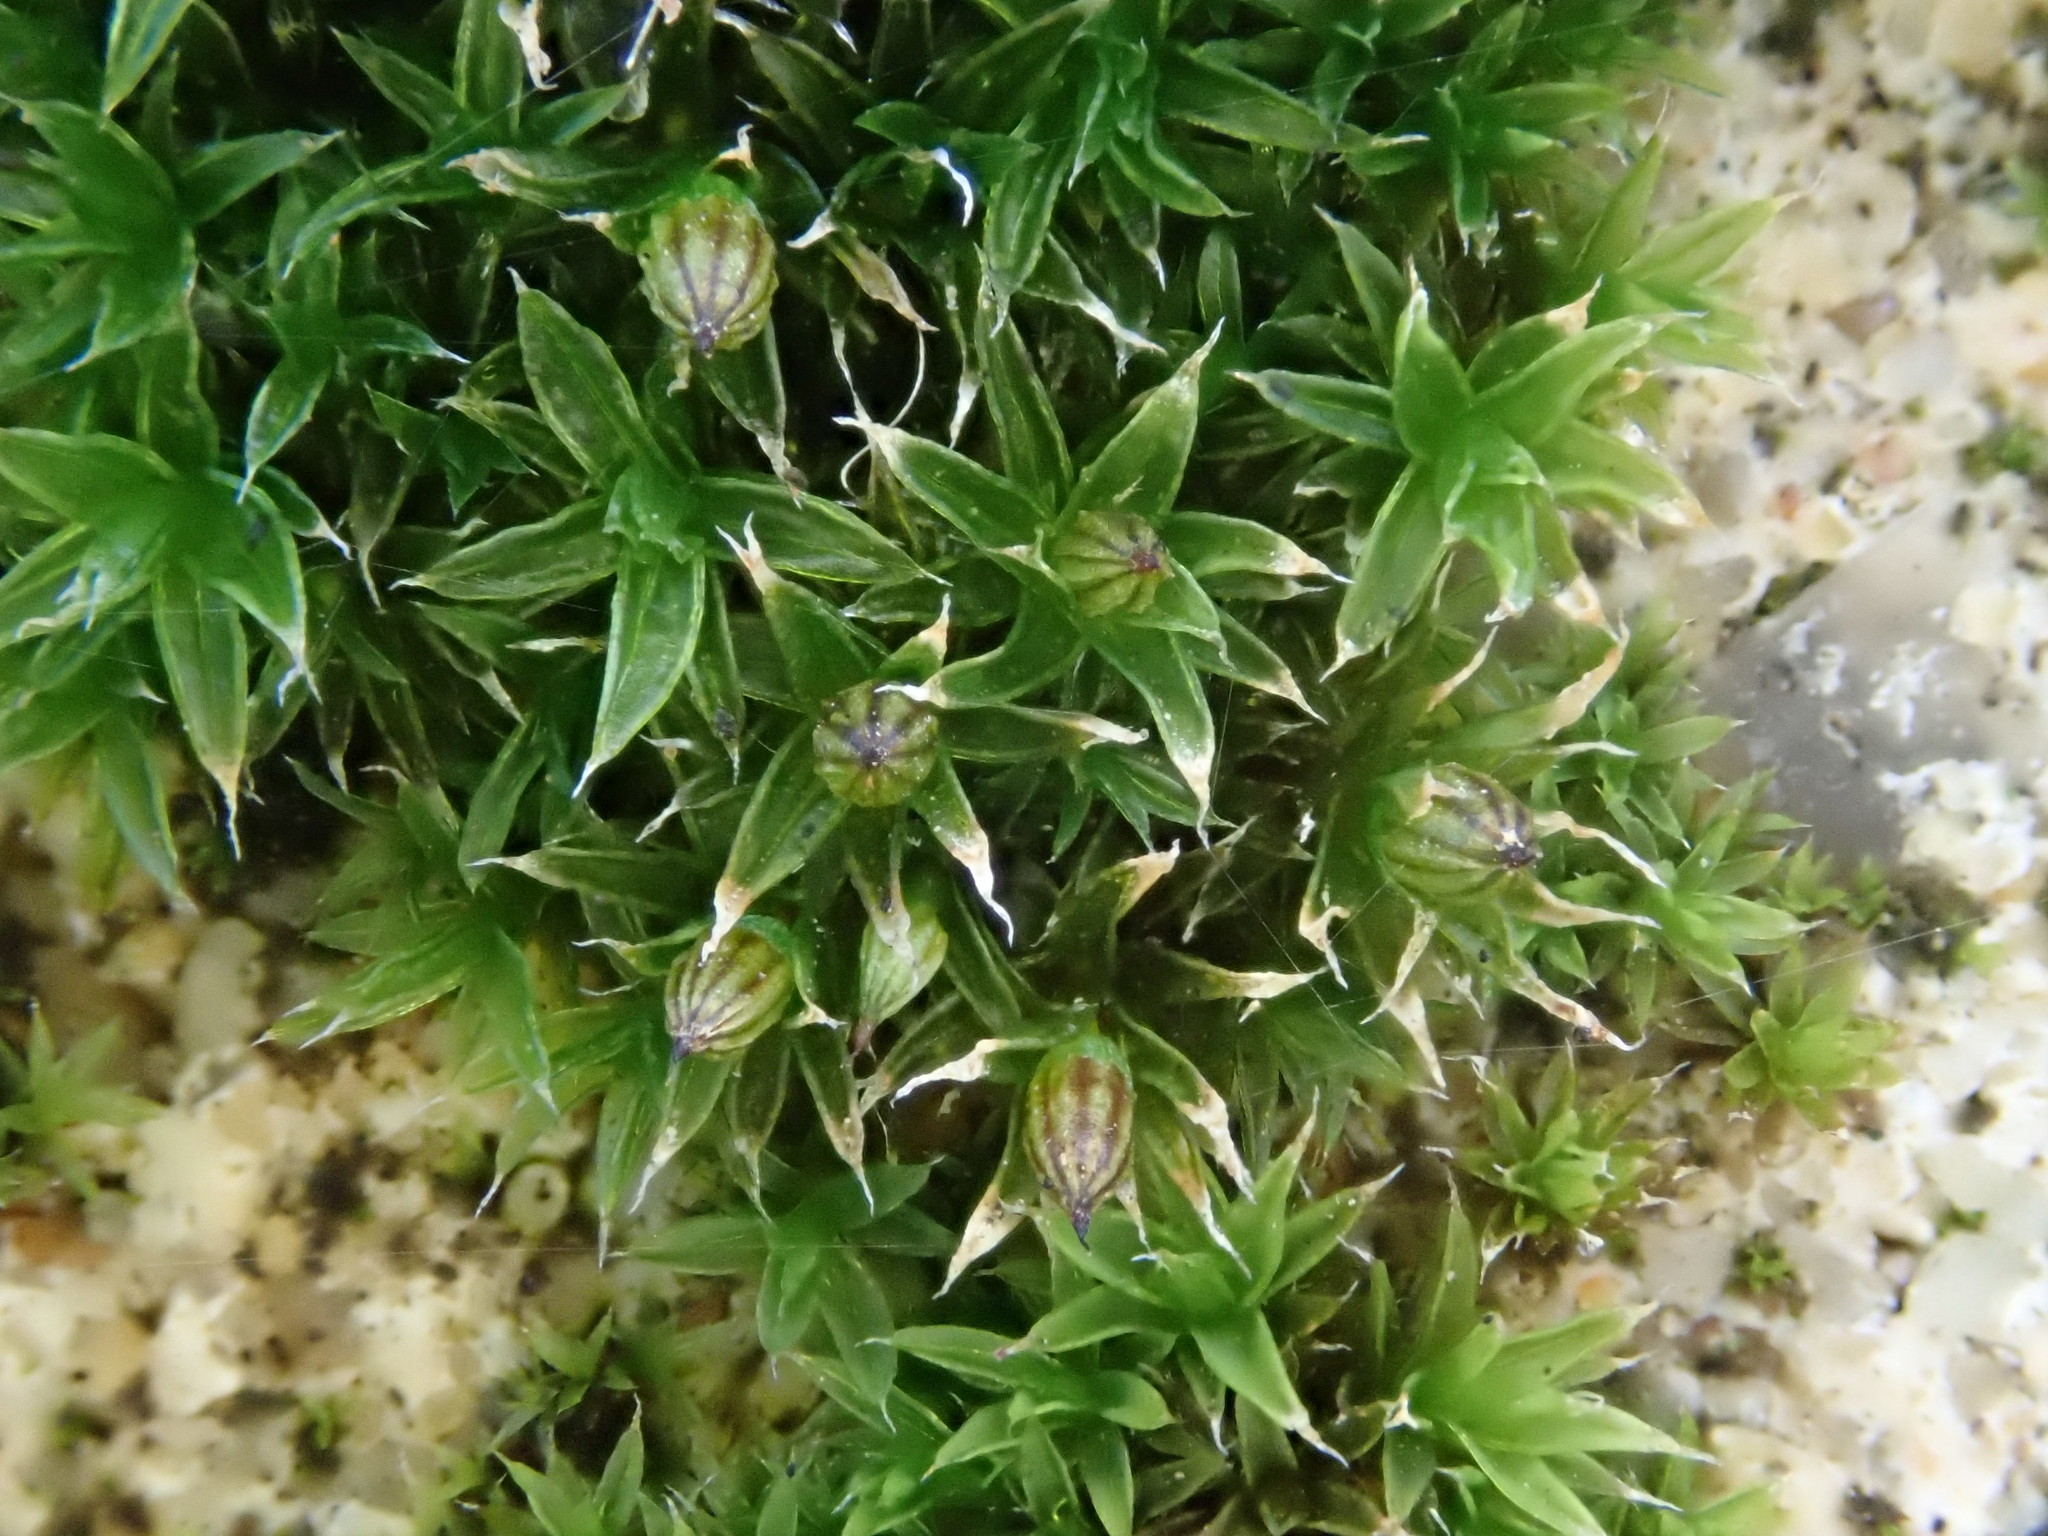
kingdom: Plantae
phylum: Bryophyta
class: Bryopsida
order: Orthotrichales
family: Orthotrichaceae
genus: Orthotrichum
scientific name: Orthotrichum diaphanum
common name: White-tipped bristle-moss
